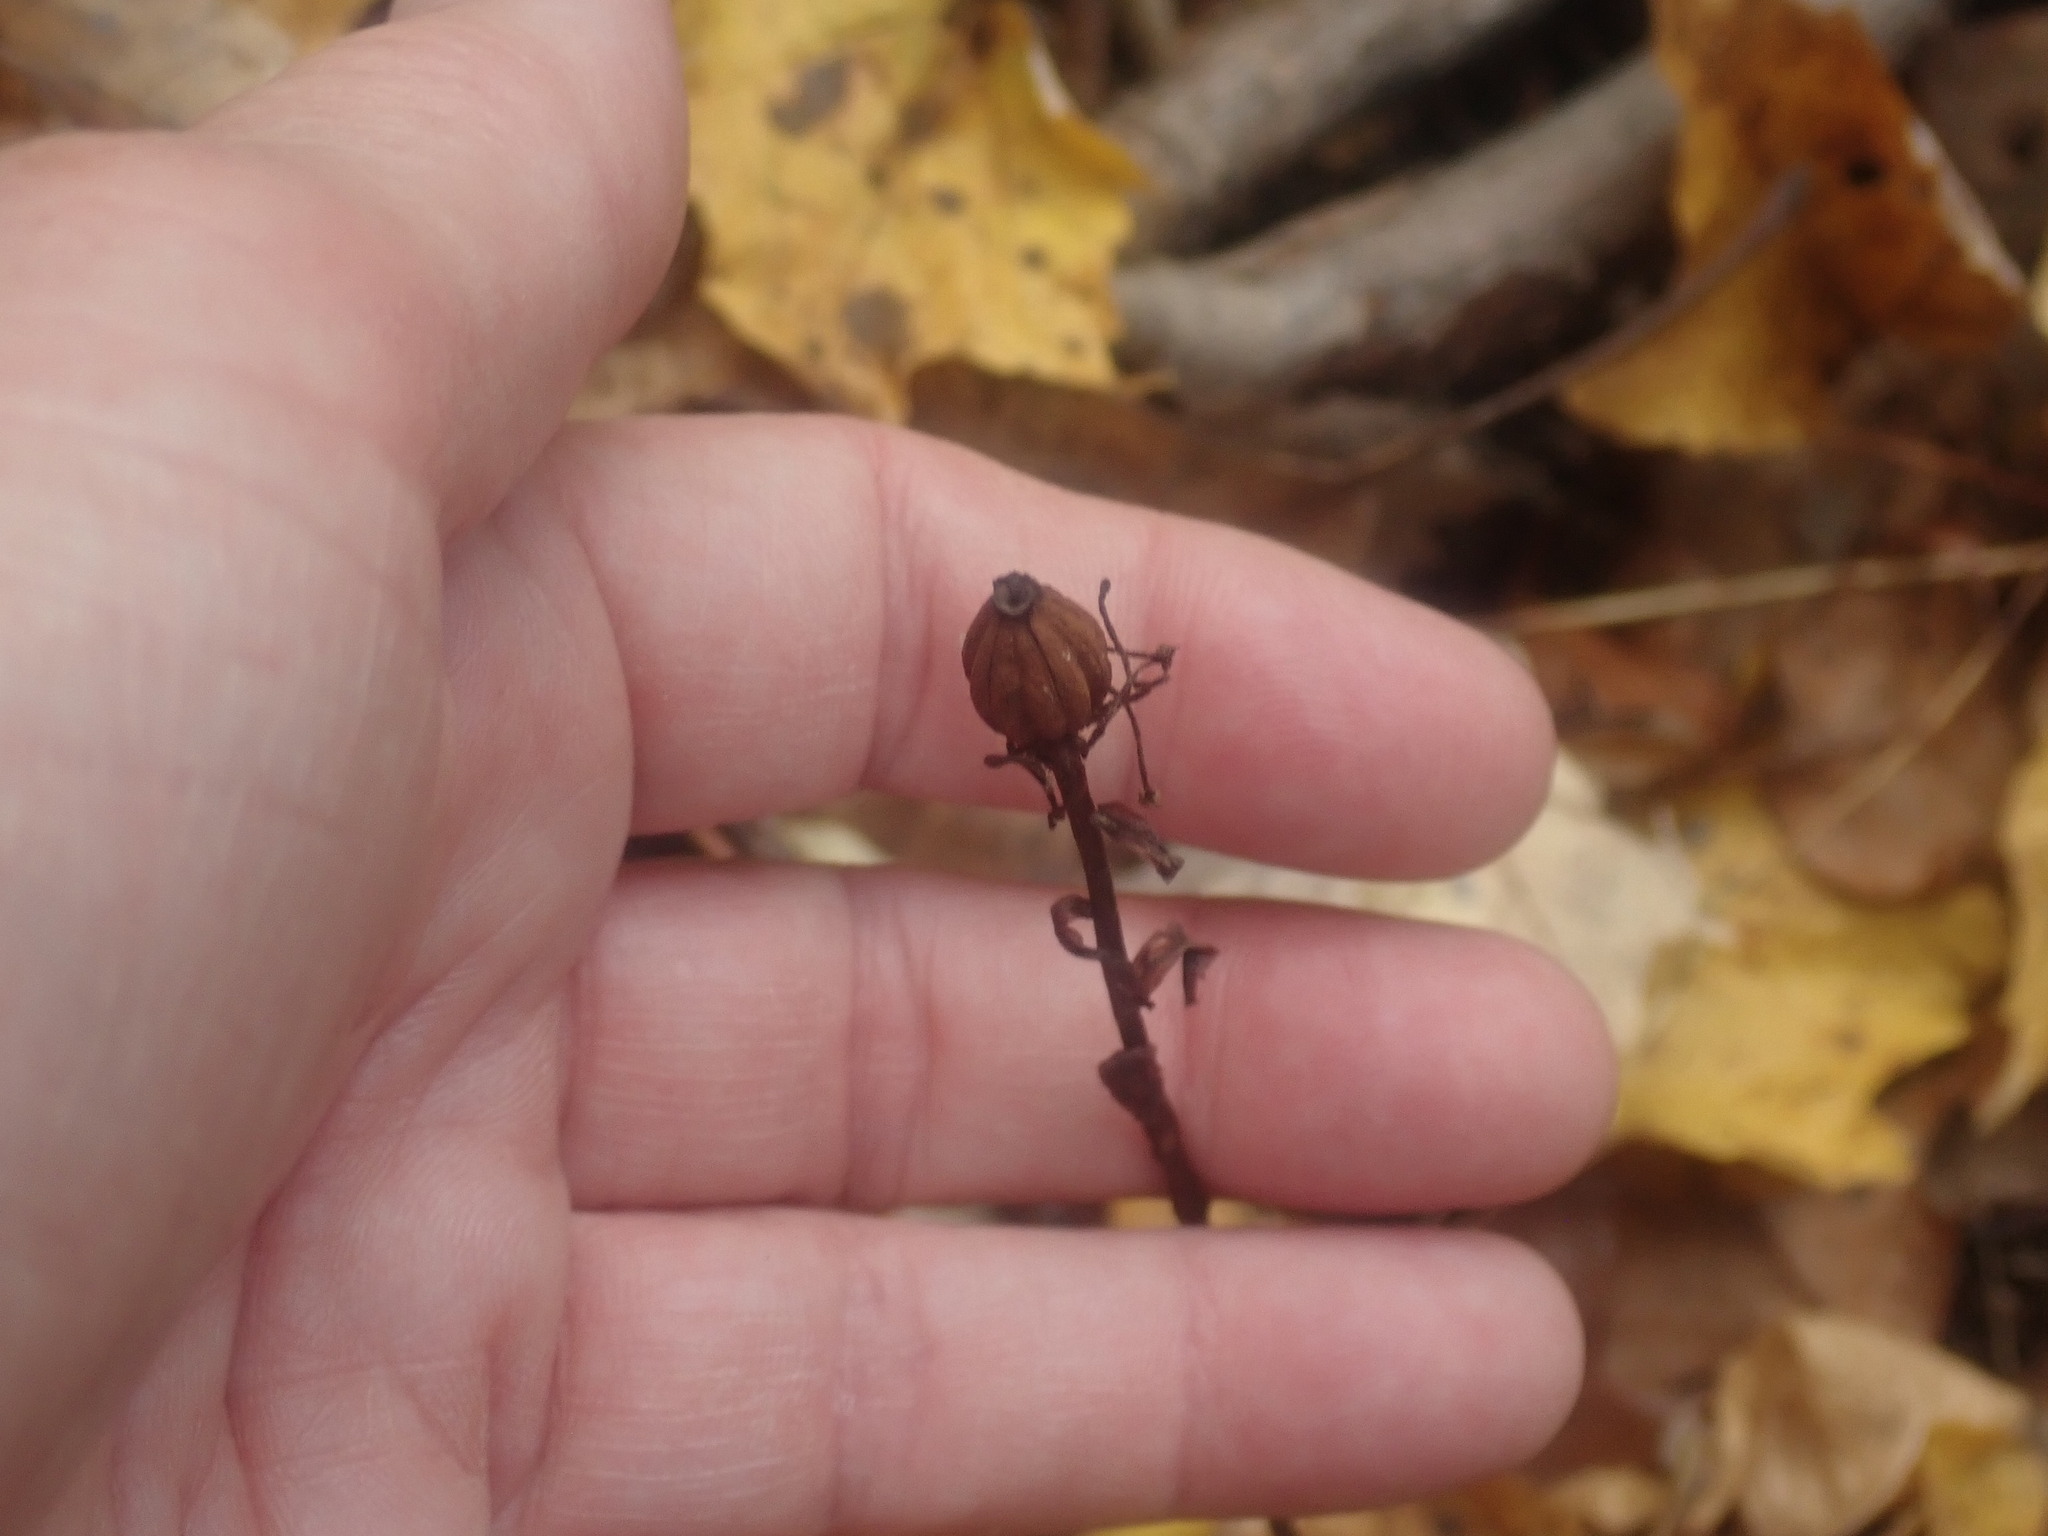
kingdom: Plantae
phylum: Tracheophyta
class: Magnoliopsida
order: Ericales
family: Ericaceae
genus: Monotropa
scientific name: Monotropa uniflora
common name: Convulsion root
